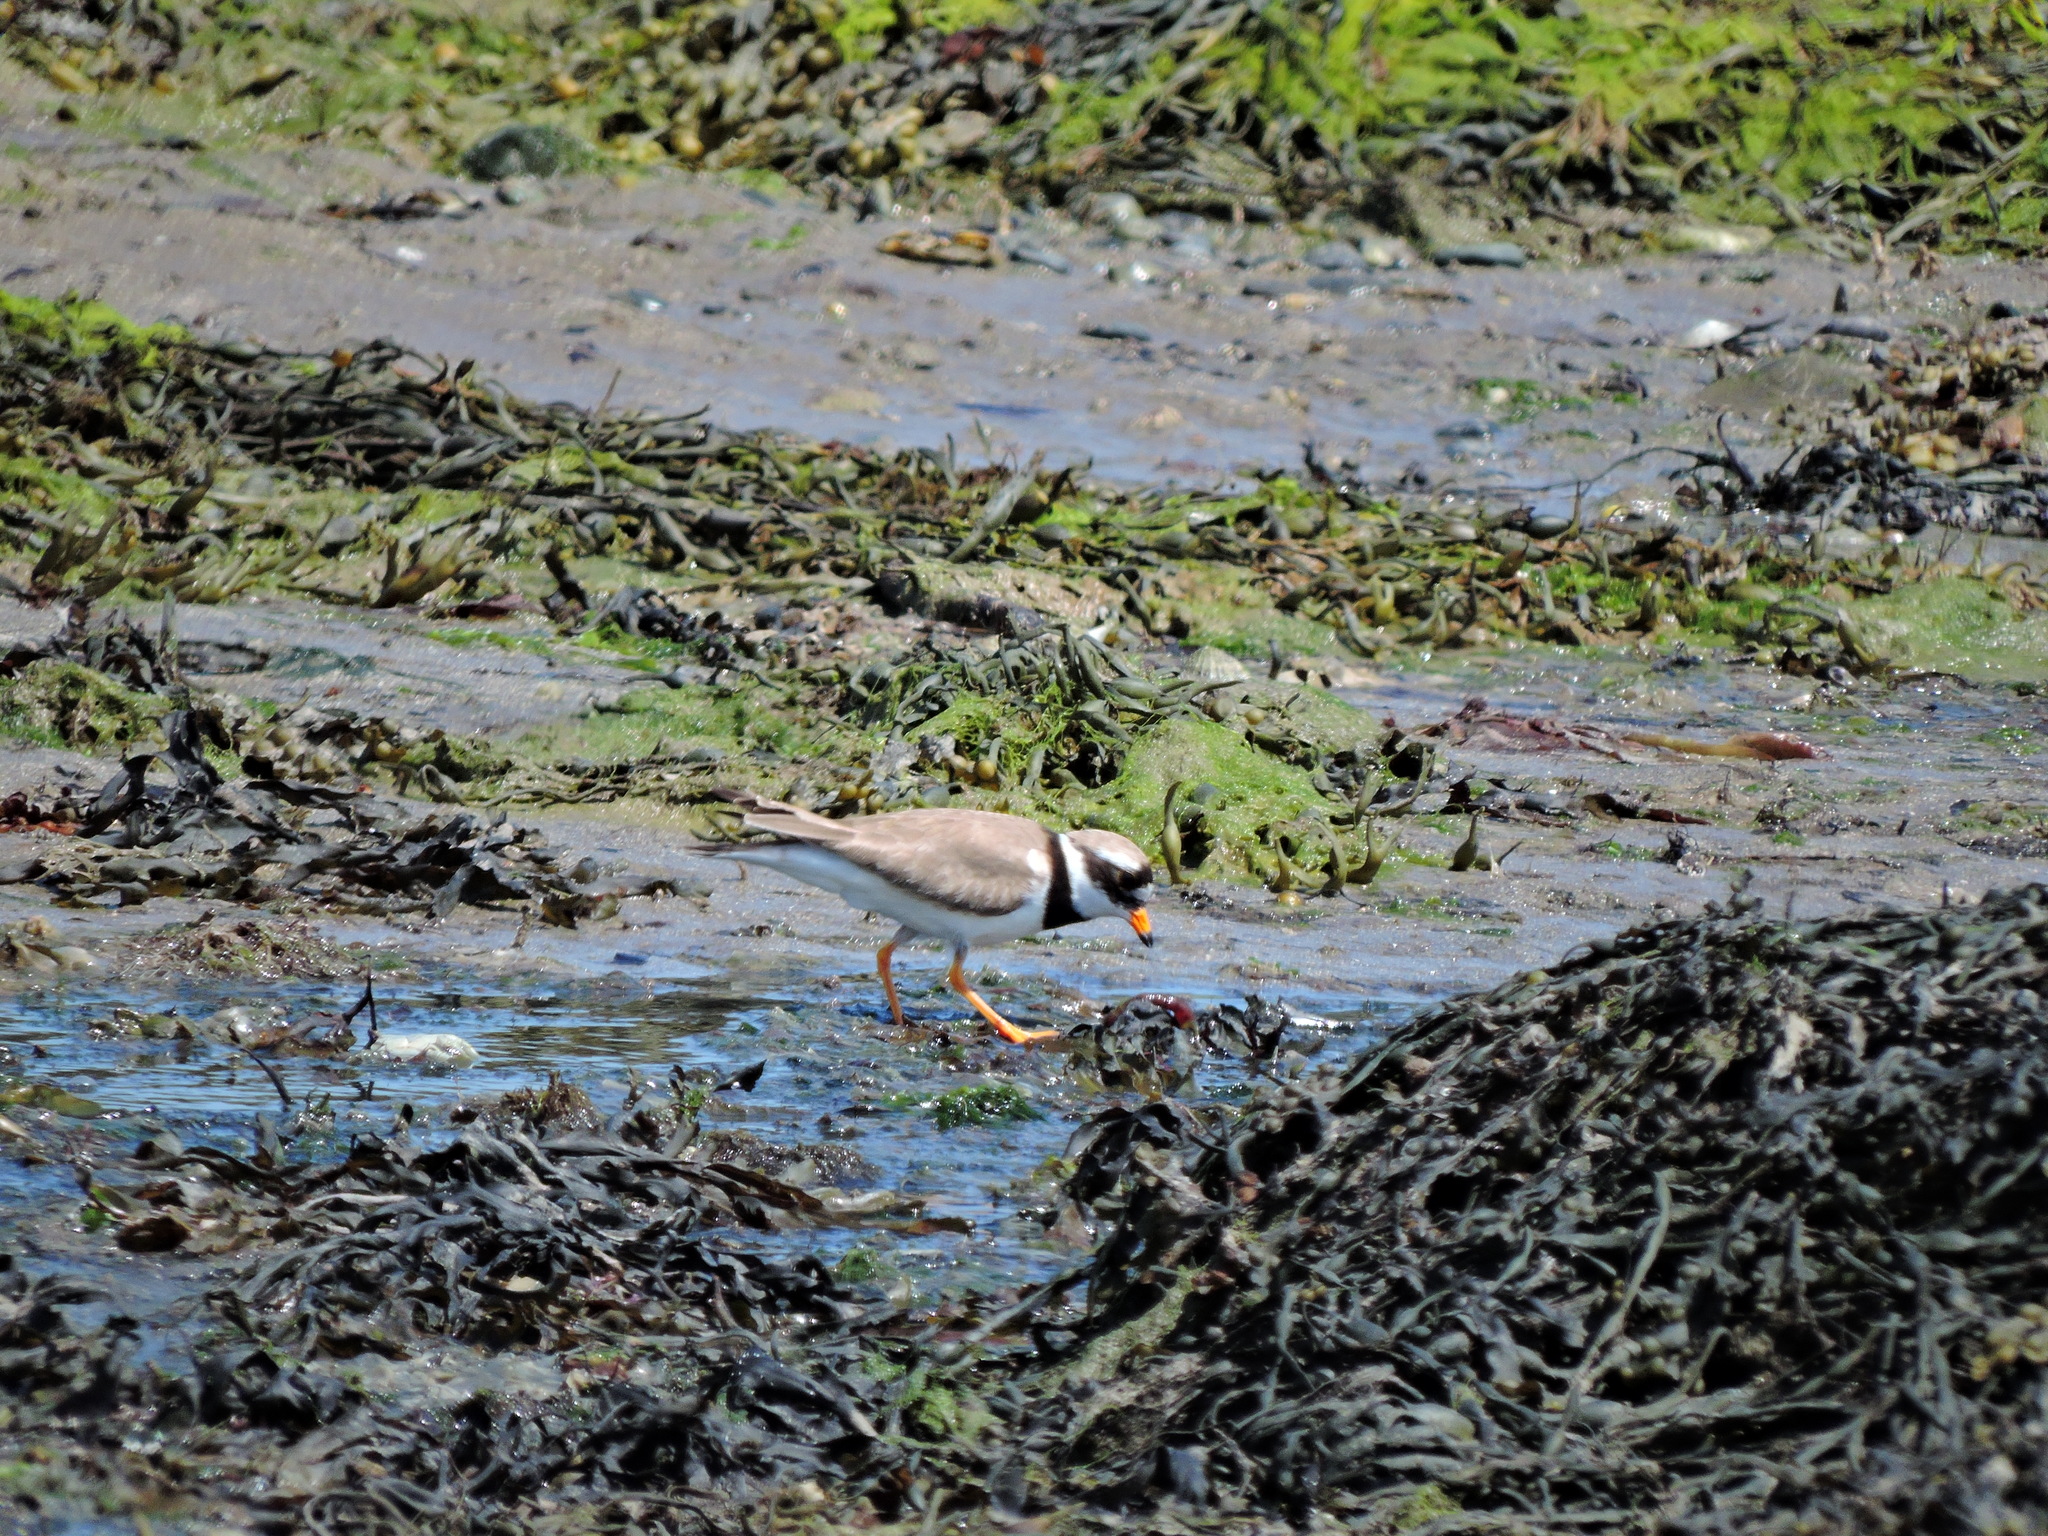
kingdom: Animalia
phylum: Chordata
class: Aves
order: Charadriiformes
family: Charadriidae
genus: Charadrius
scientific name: Charadrius hiaticula
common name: Common ringed plover
